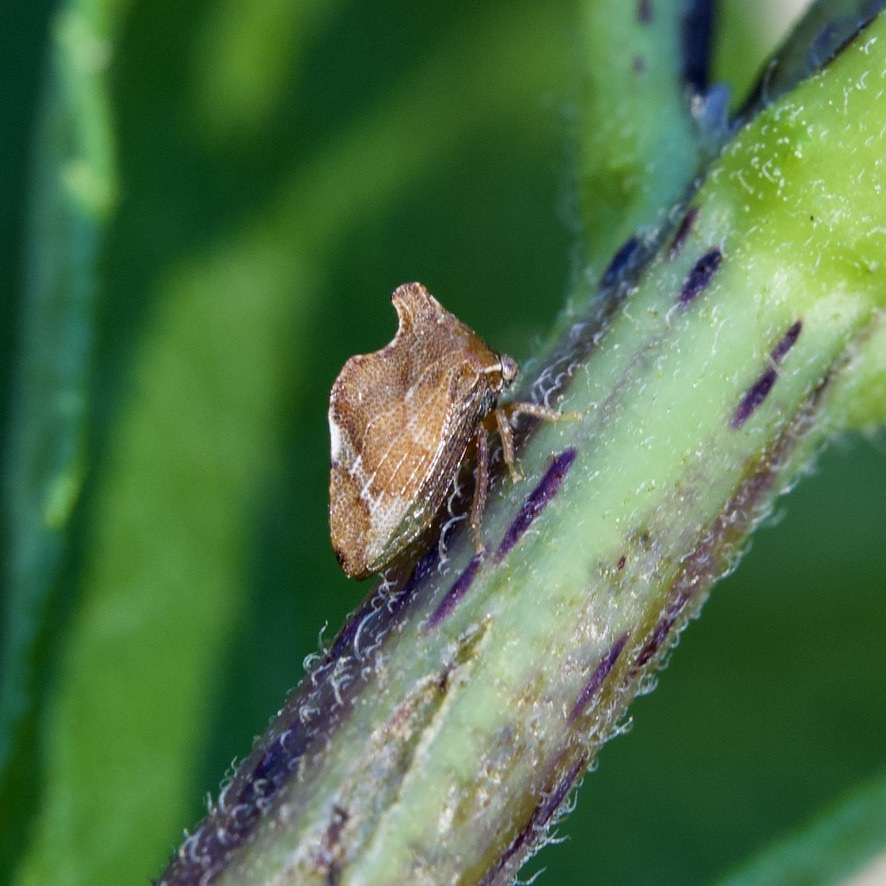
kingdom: Animalia
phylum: Arthropoda
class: Insecta
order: Hemiptera
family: Membracidae
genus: Entylia
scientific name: Entylia carinata
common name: Keeled treehopper
